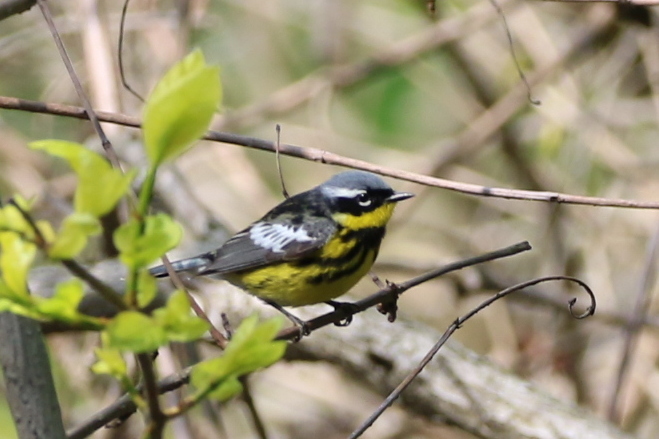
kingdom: Animalia
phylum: Chordata
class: Aves
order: Passeriformes
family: Parulidae
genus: Setophaga
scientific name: Setophaga magnolia
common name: Magnolia warbler
